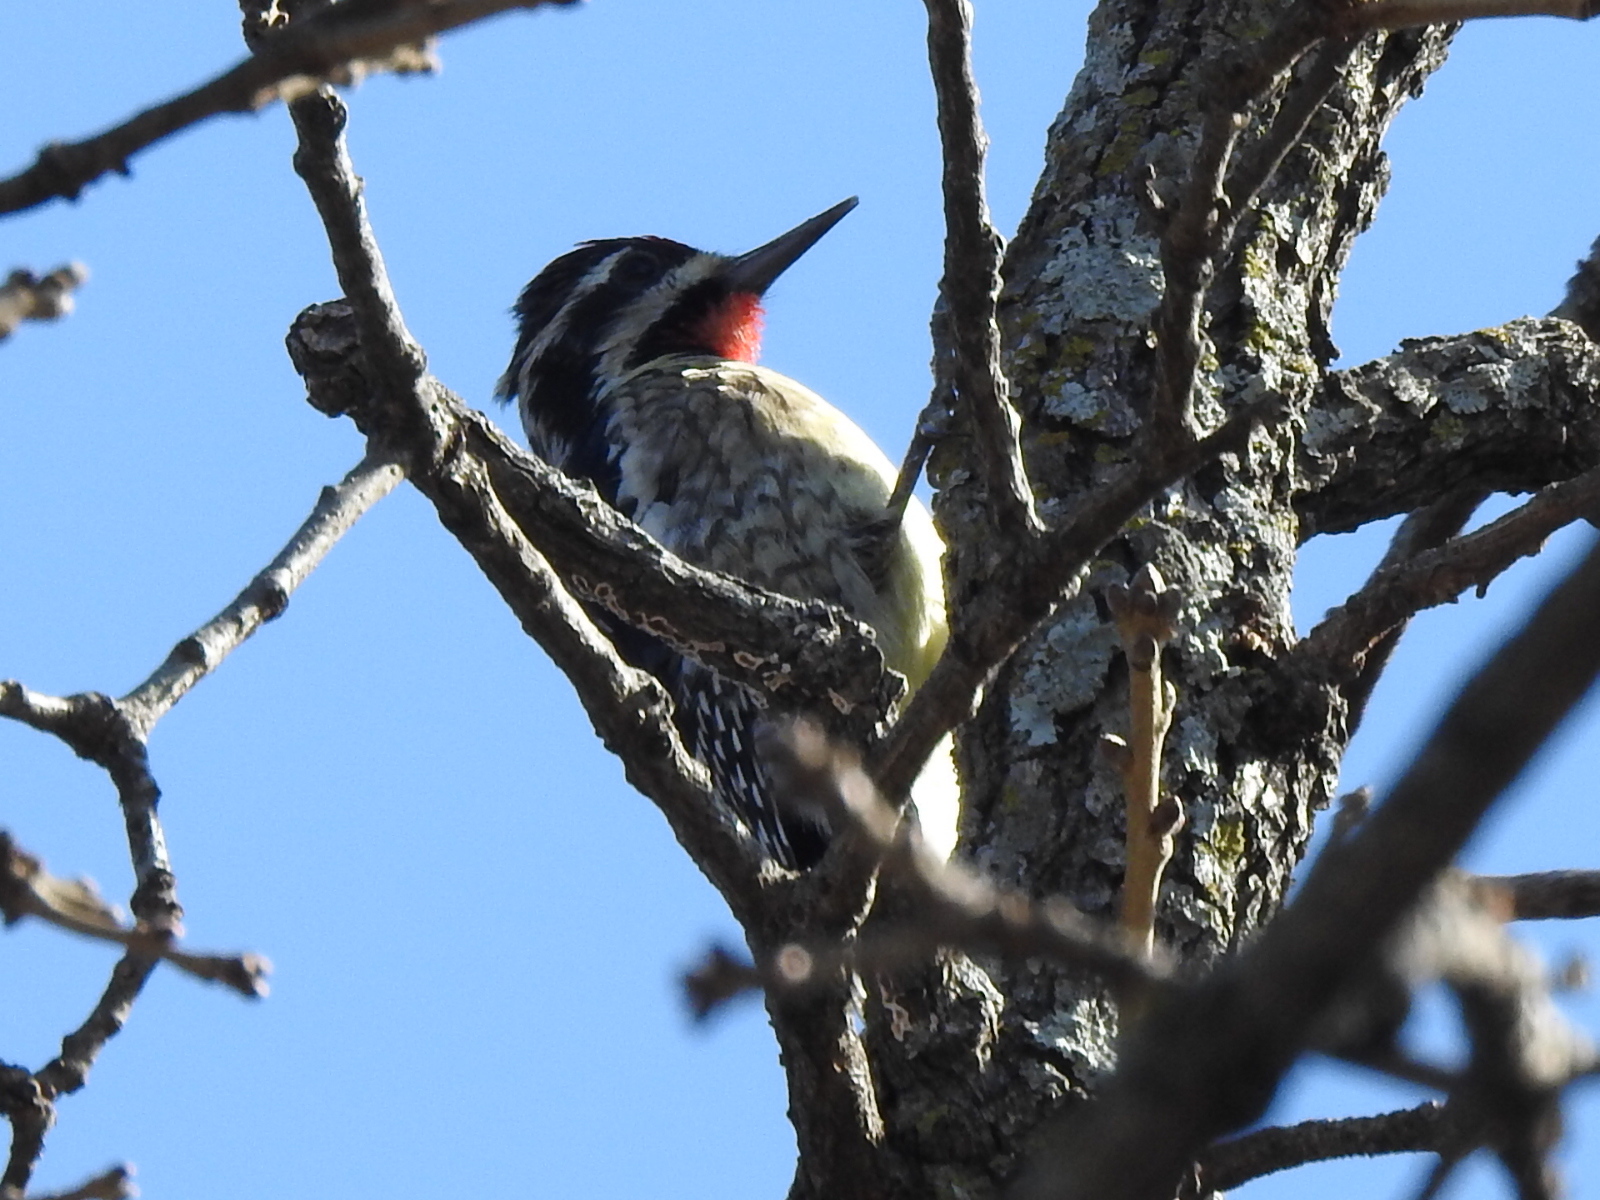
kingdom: Animalia
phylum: Chordata
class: Aves
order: Piciformes
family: Picidae
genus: Sphyrapicus
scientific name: Sphyrapicus varius
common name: Yellow-bellied sapsucker
